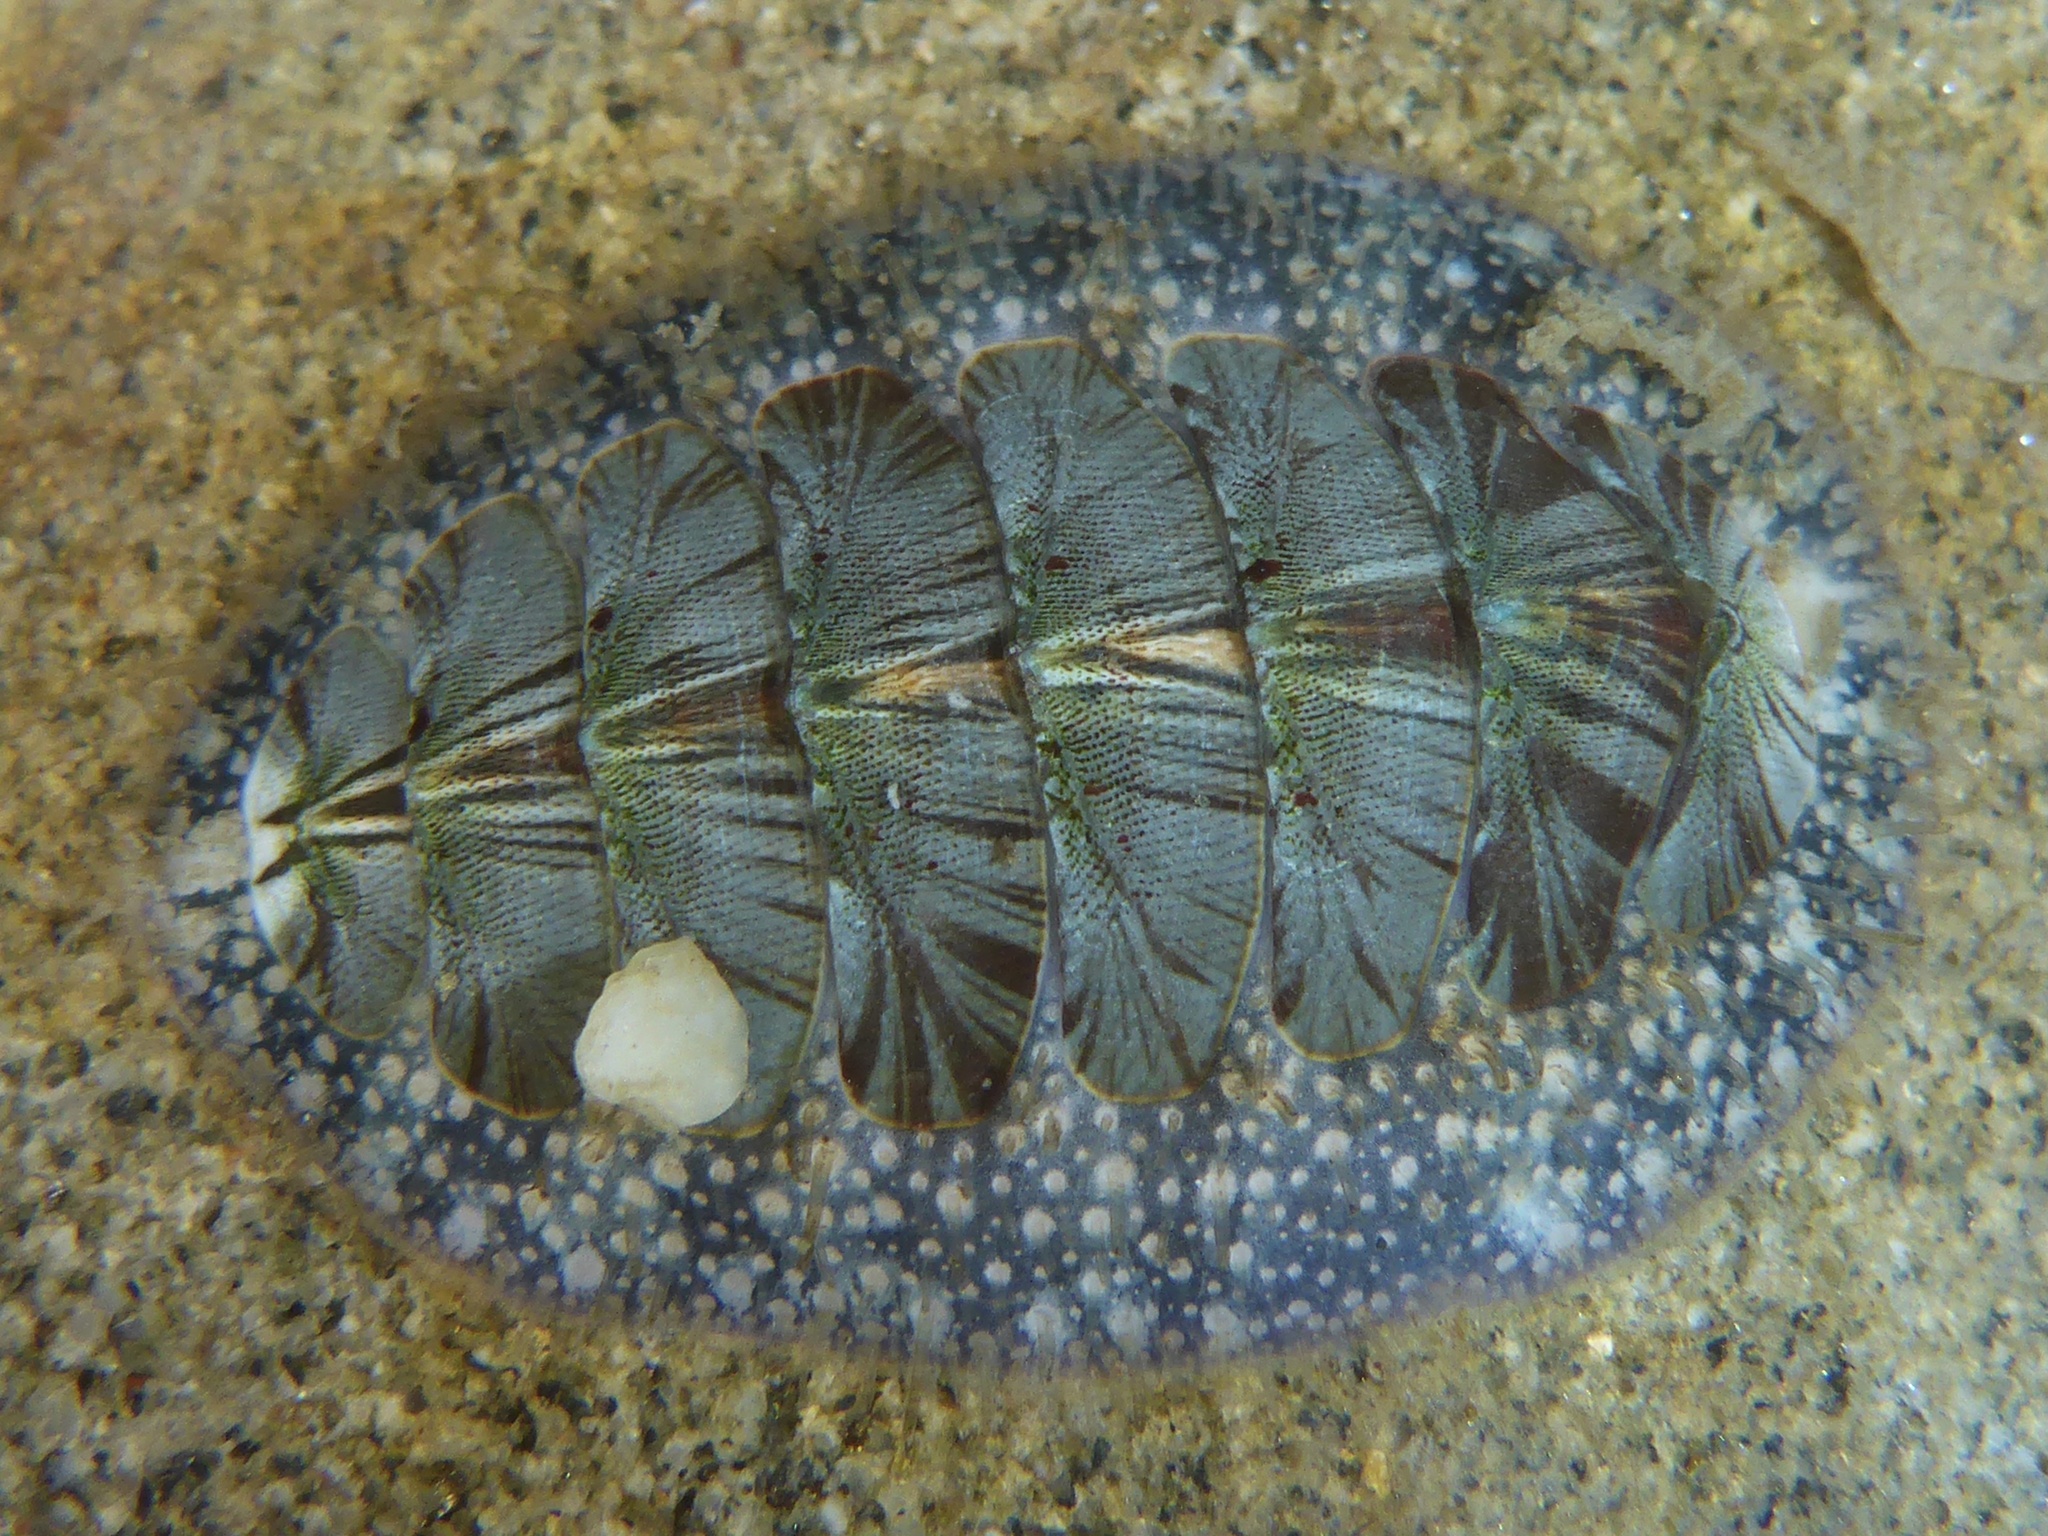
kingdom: Animalia
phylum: Mollusca
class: Polyplacophora
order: Chitonida
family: Mopaliidae
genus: Mopalia
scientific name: Mopalia lignosa
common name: Woody chiton
